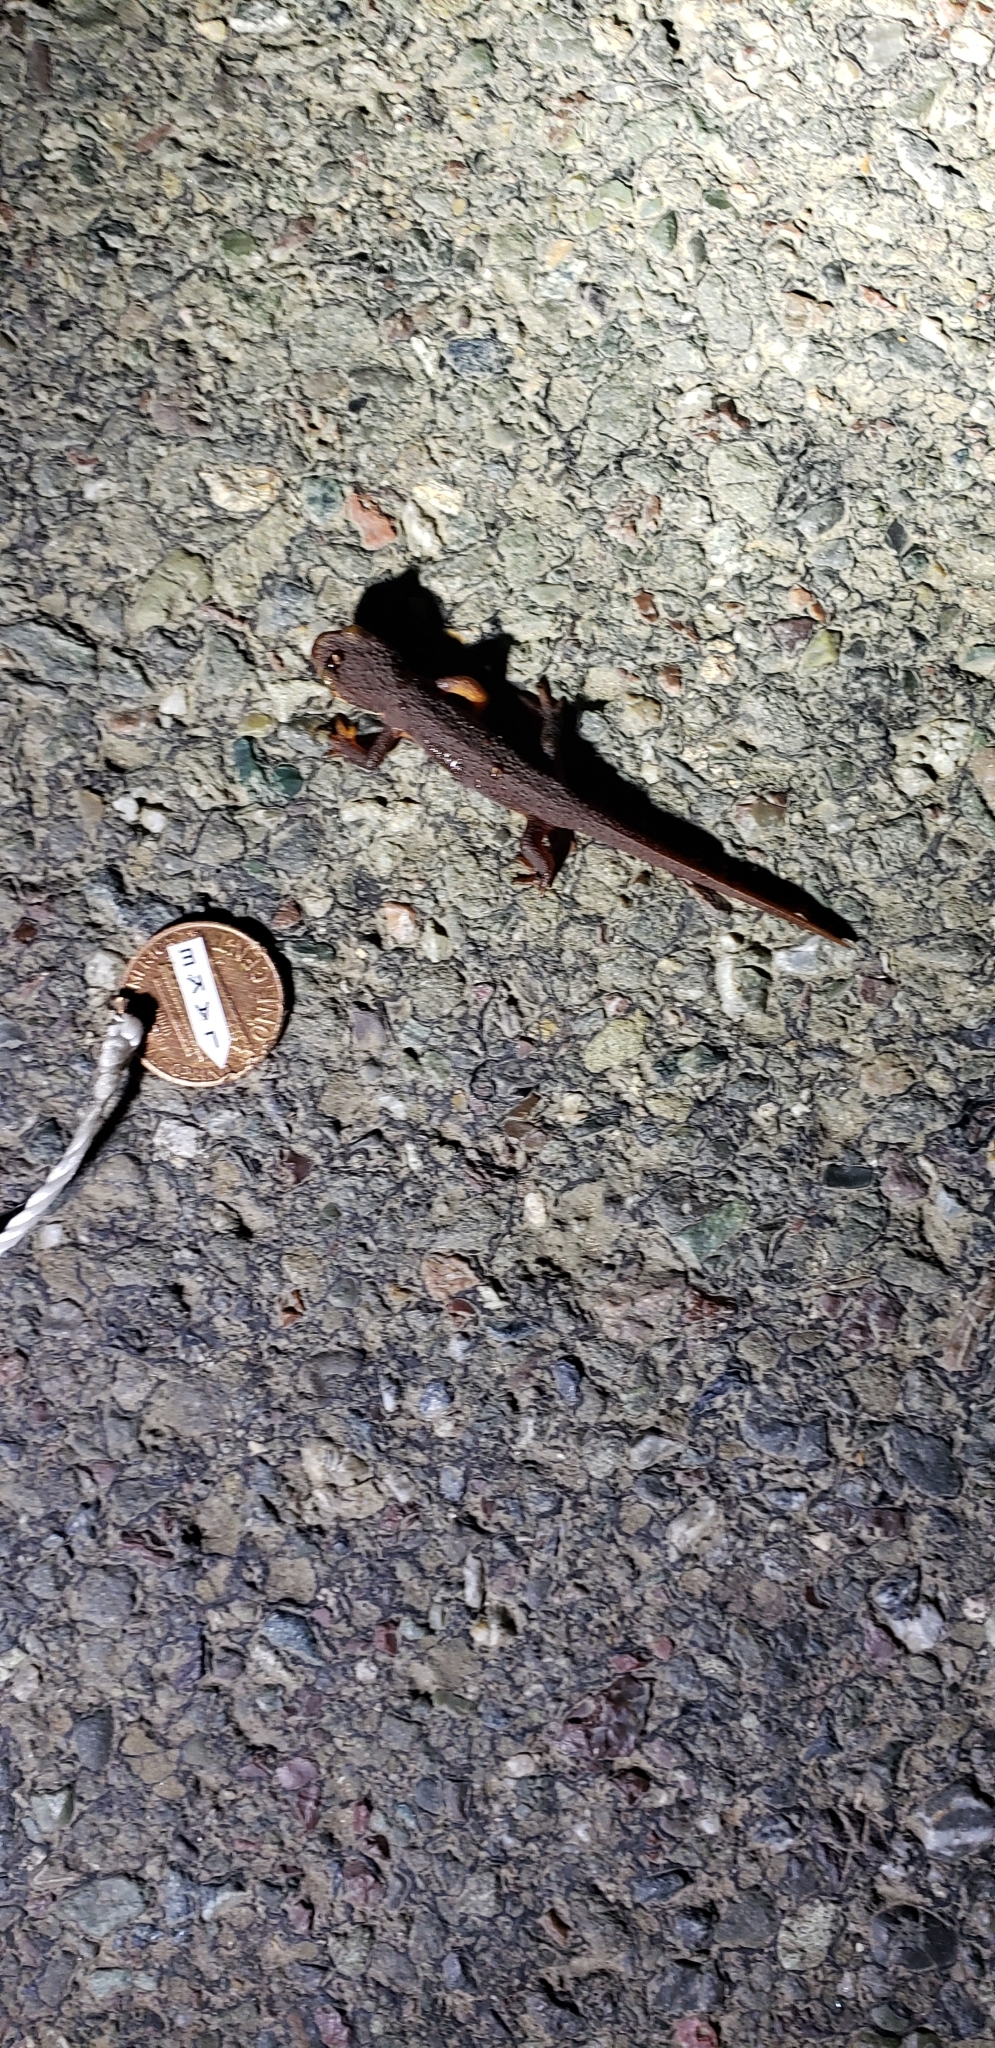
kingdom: Animalia
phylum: Chordata
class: Amphibia
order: Caudata
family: Salamandridae
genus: Taricha
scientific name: Taricha torosa
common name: California newt
